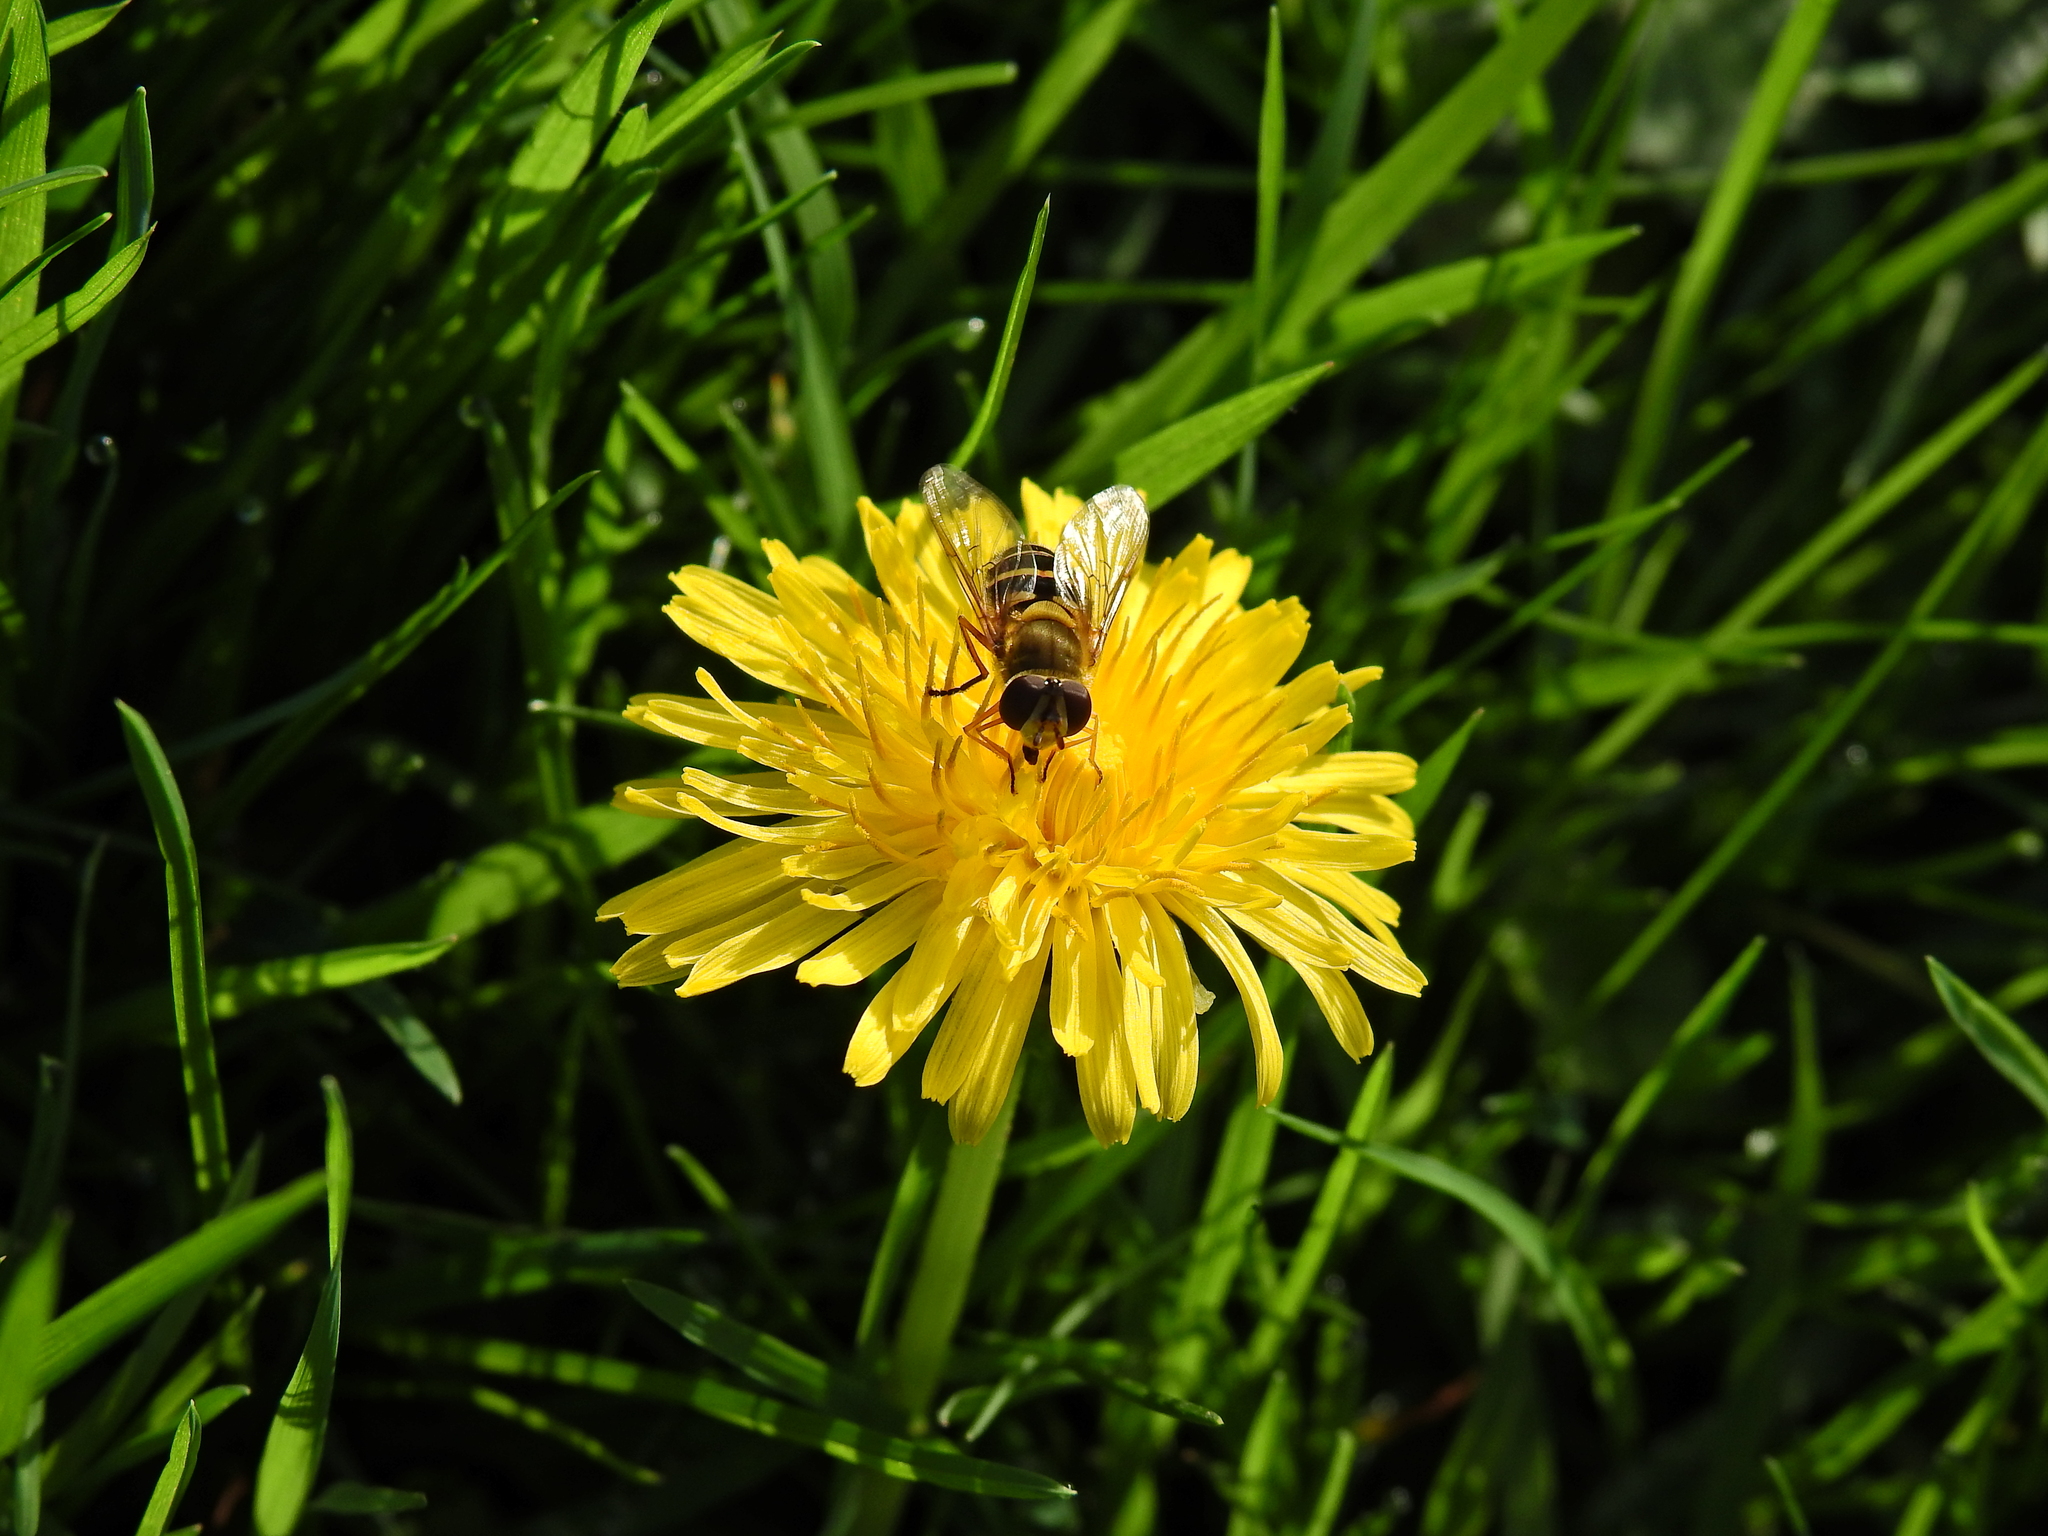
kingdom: Animalia
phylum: Arthropoda
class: Insecta
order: Diptera
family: Syrphidae
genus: Syrphus
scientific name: Syrphus ribesii
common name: Common flower fly
